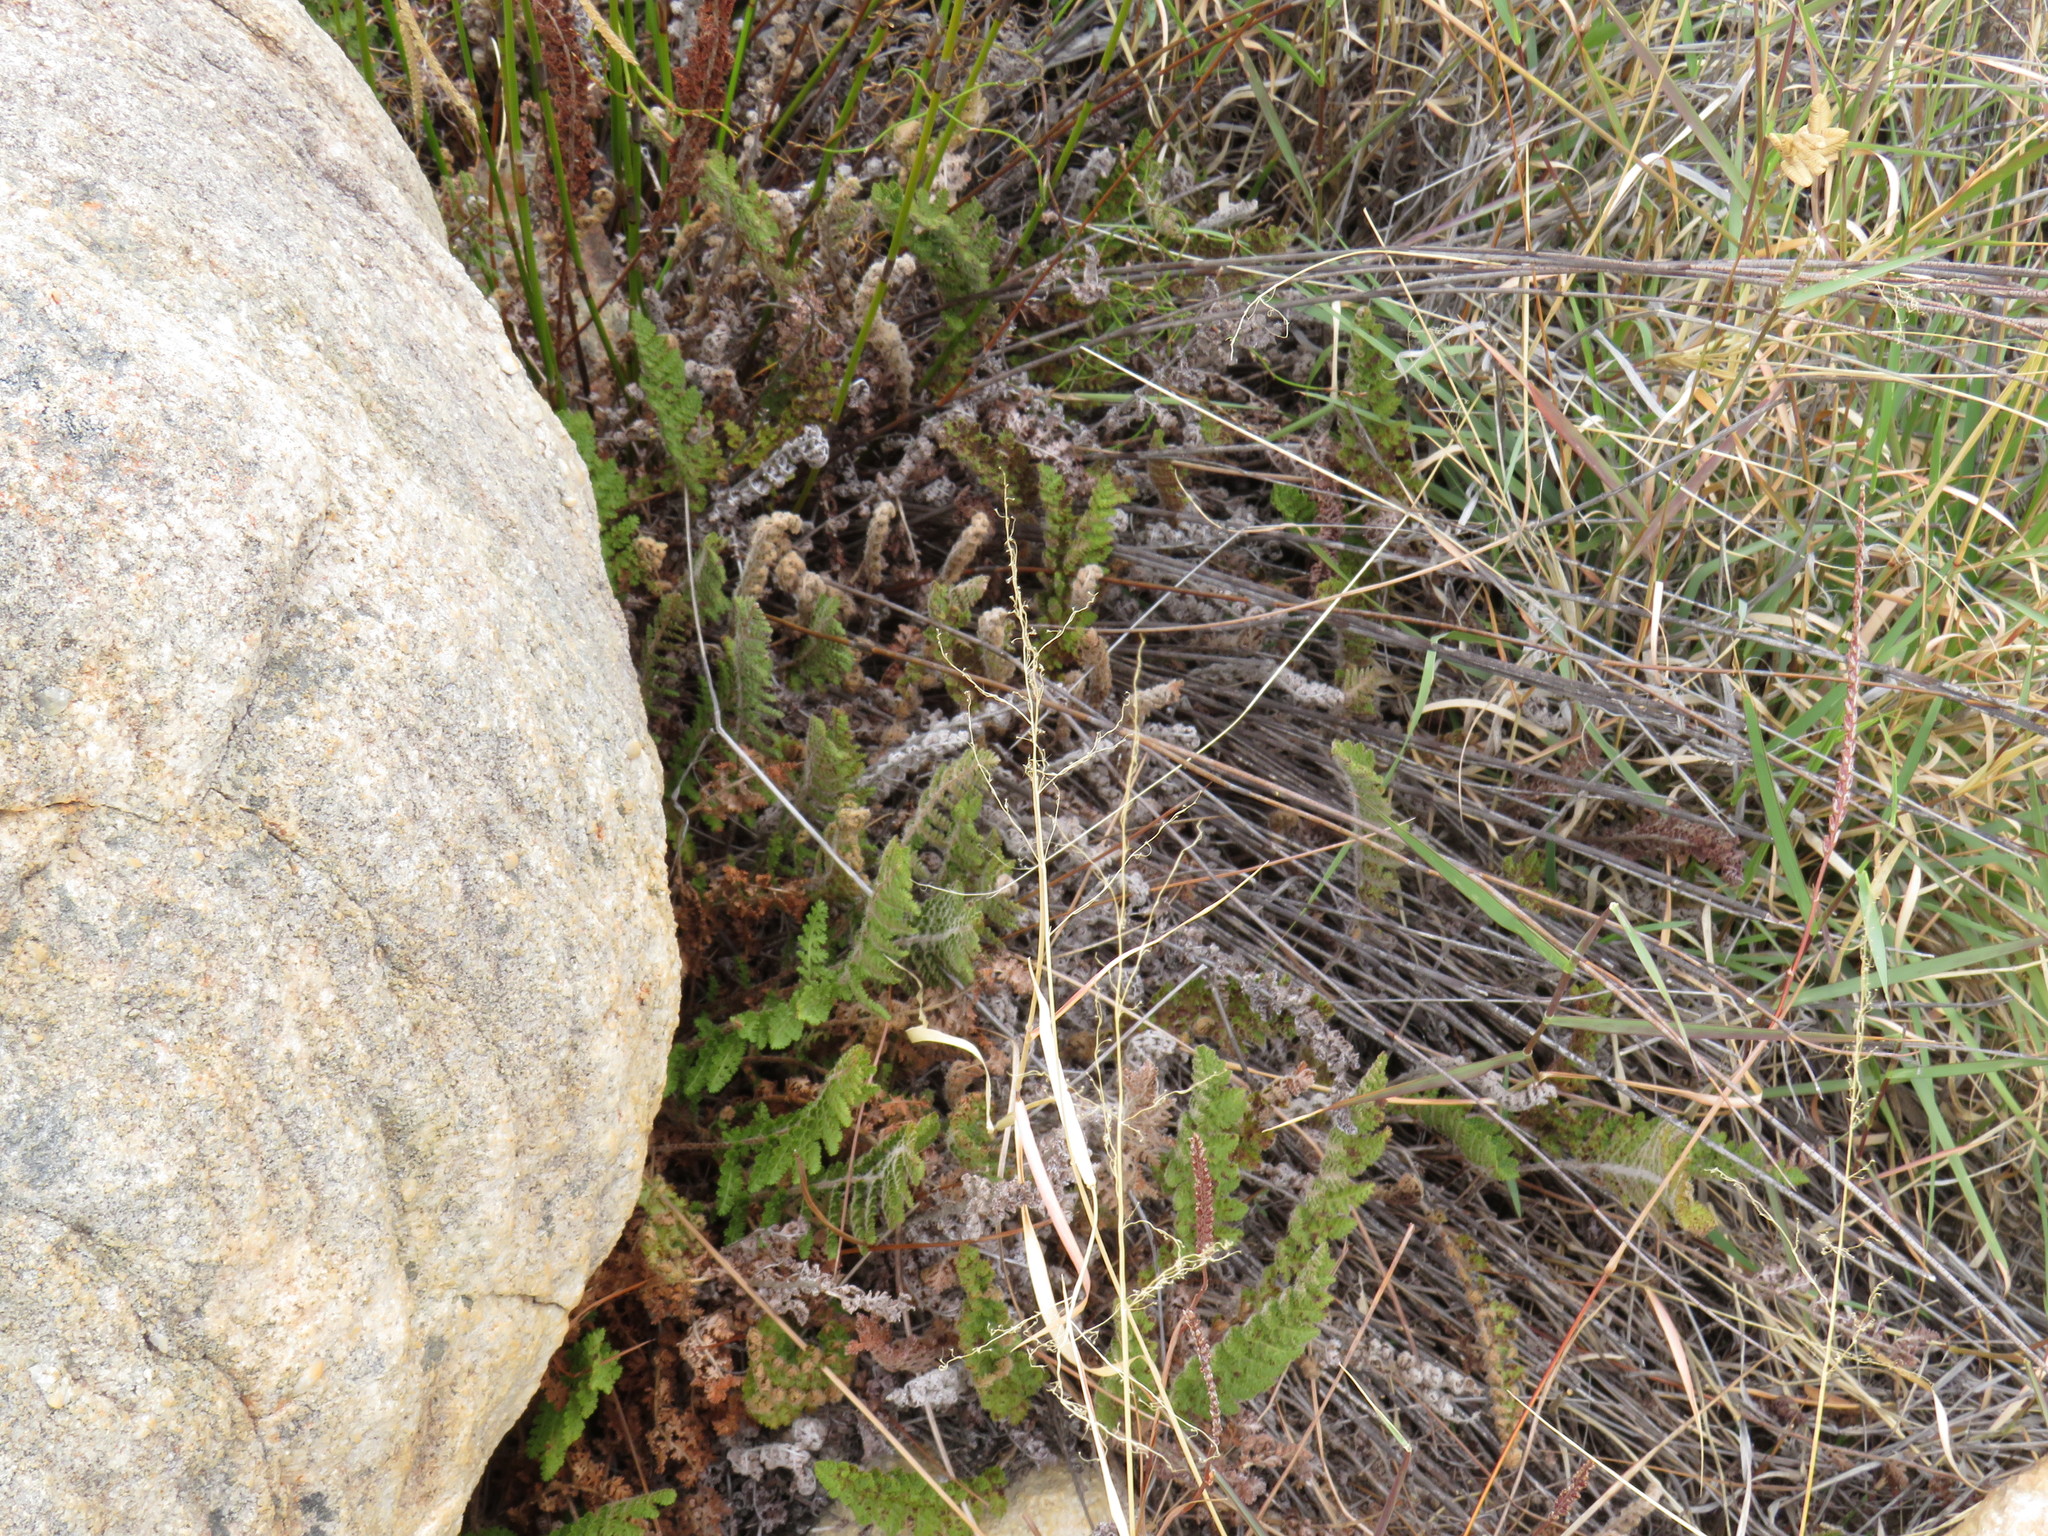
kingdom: Plantae
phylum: Tracheophyta
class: Polypodiopsida
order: Schizaeales
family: Anemiaceae
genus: Anemia
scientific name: Anemia caffrorum
